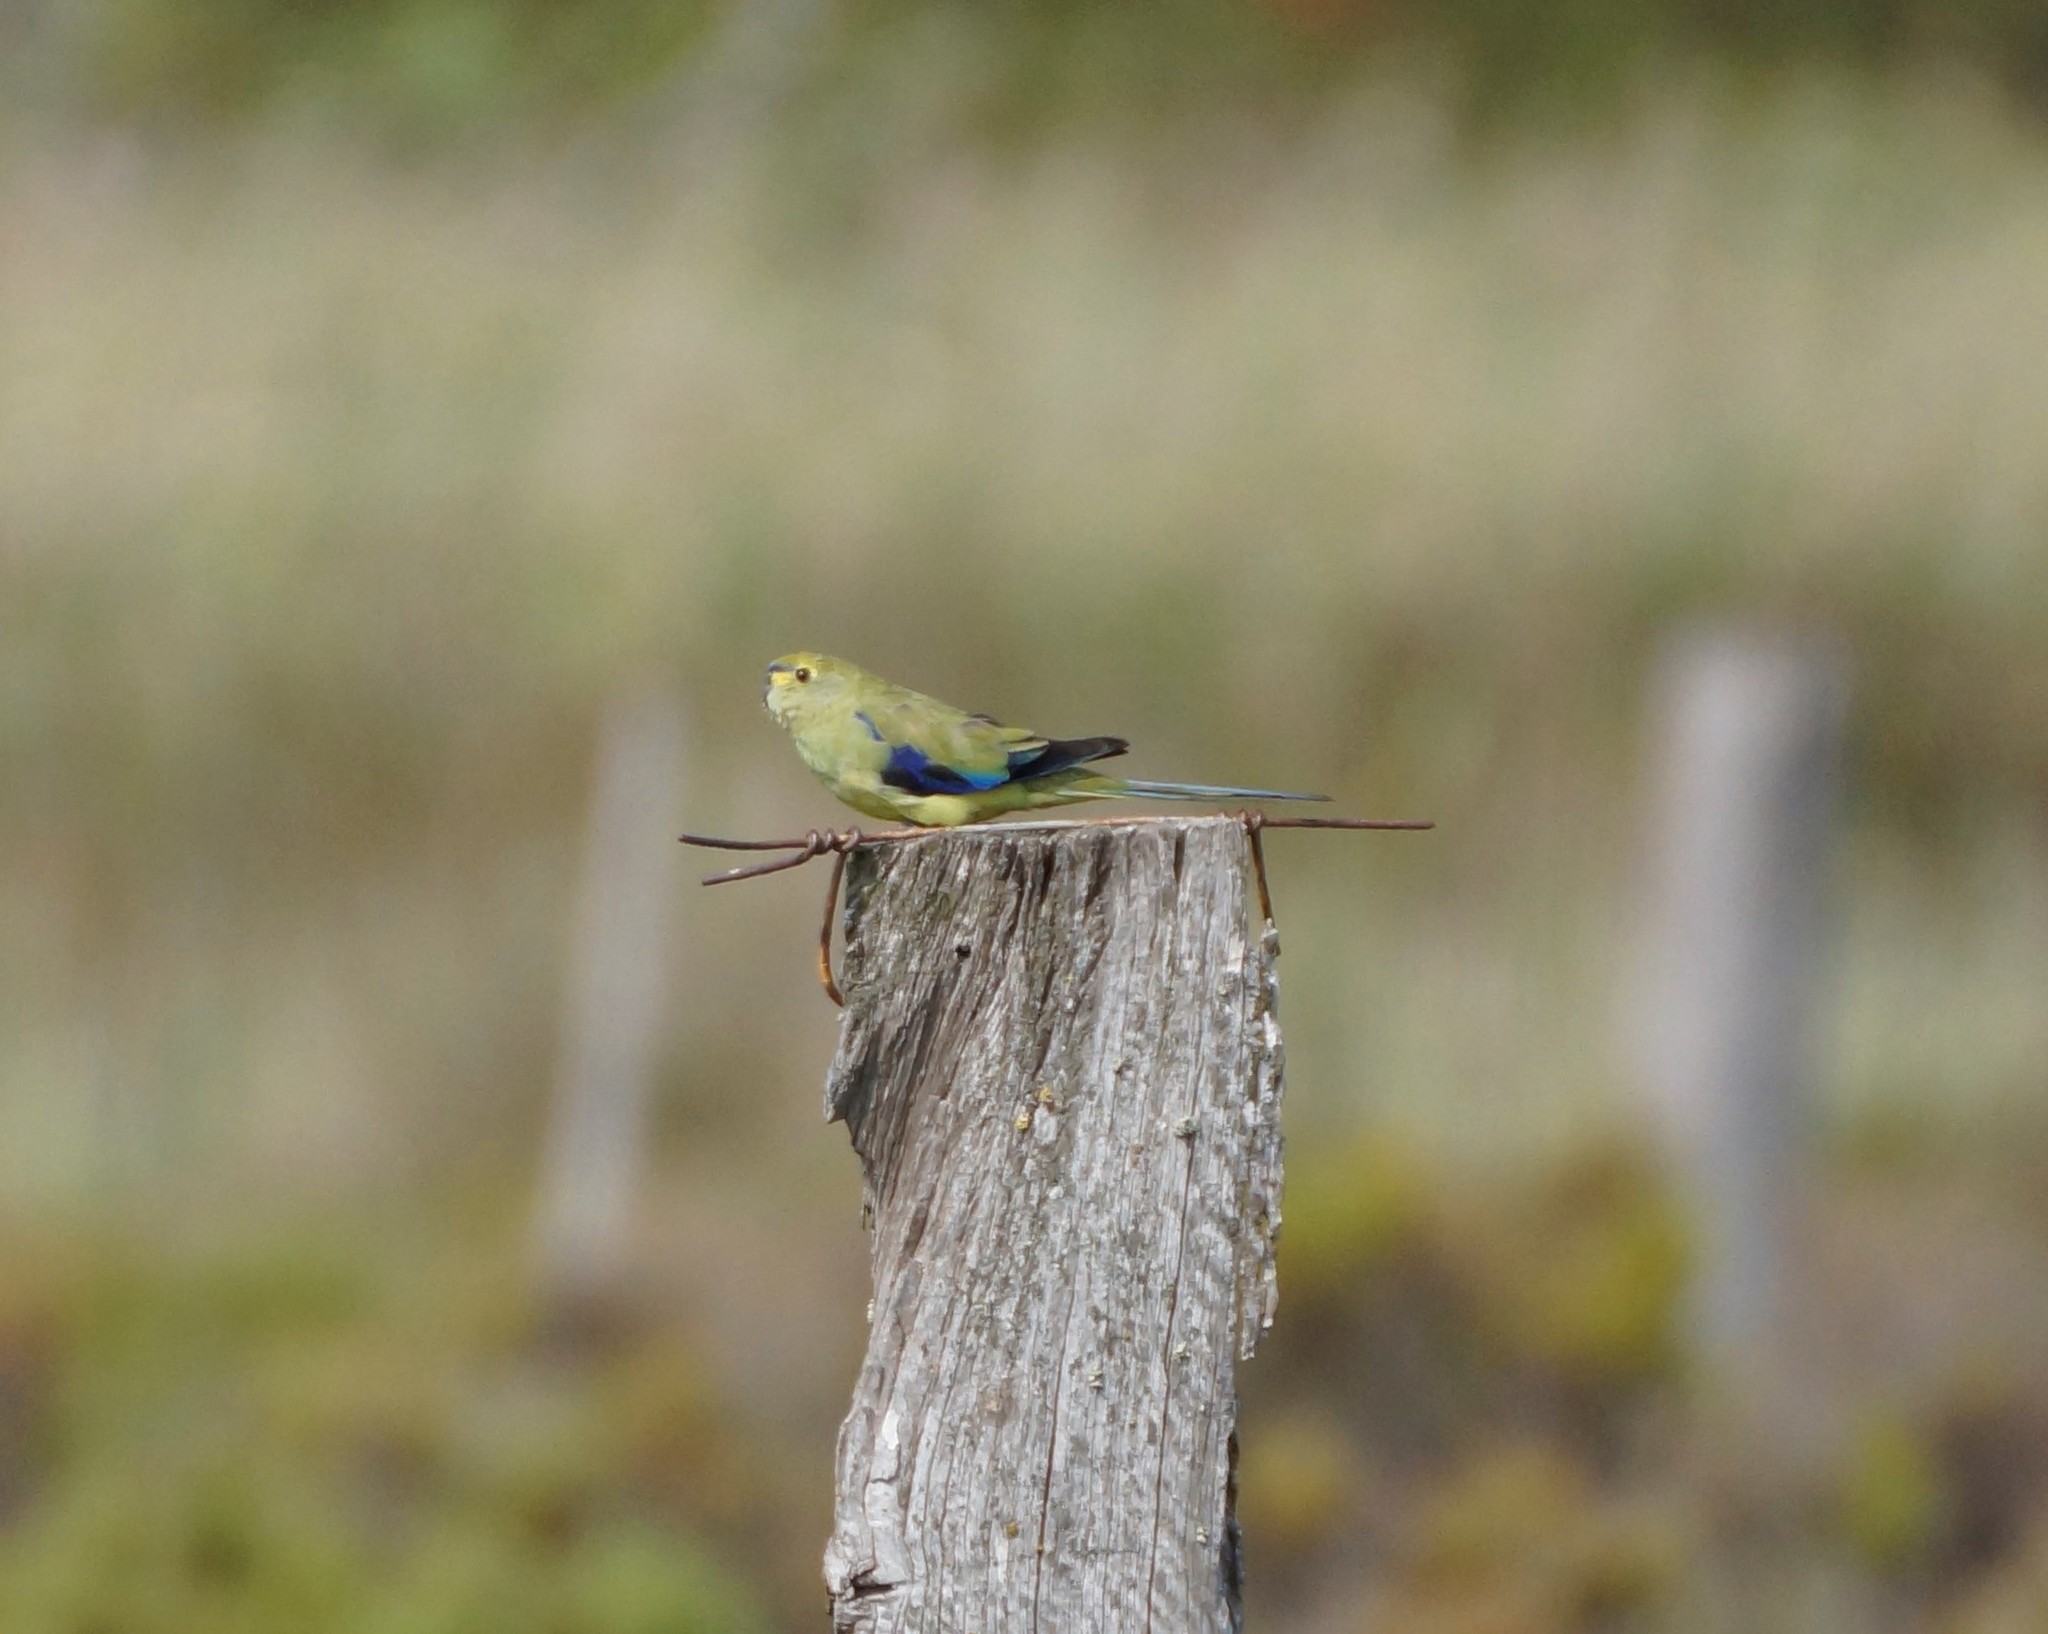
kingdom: Animalia
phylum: Chordata
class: Aves
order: Psittaciformes
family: Psittacidae
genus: Neophema
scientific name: Neophema chrysostoma
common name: Blue-winged parrot
